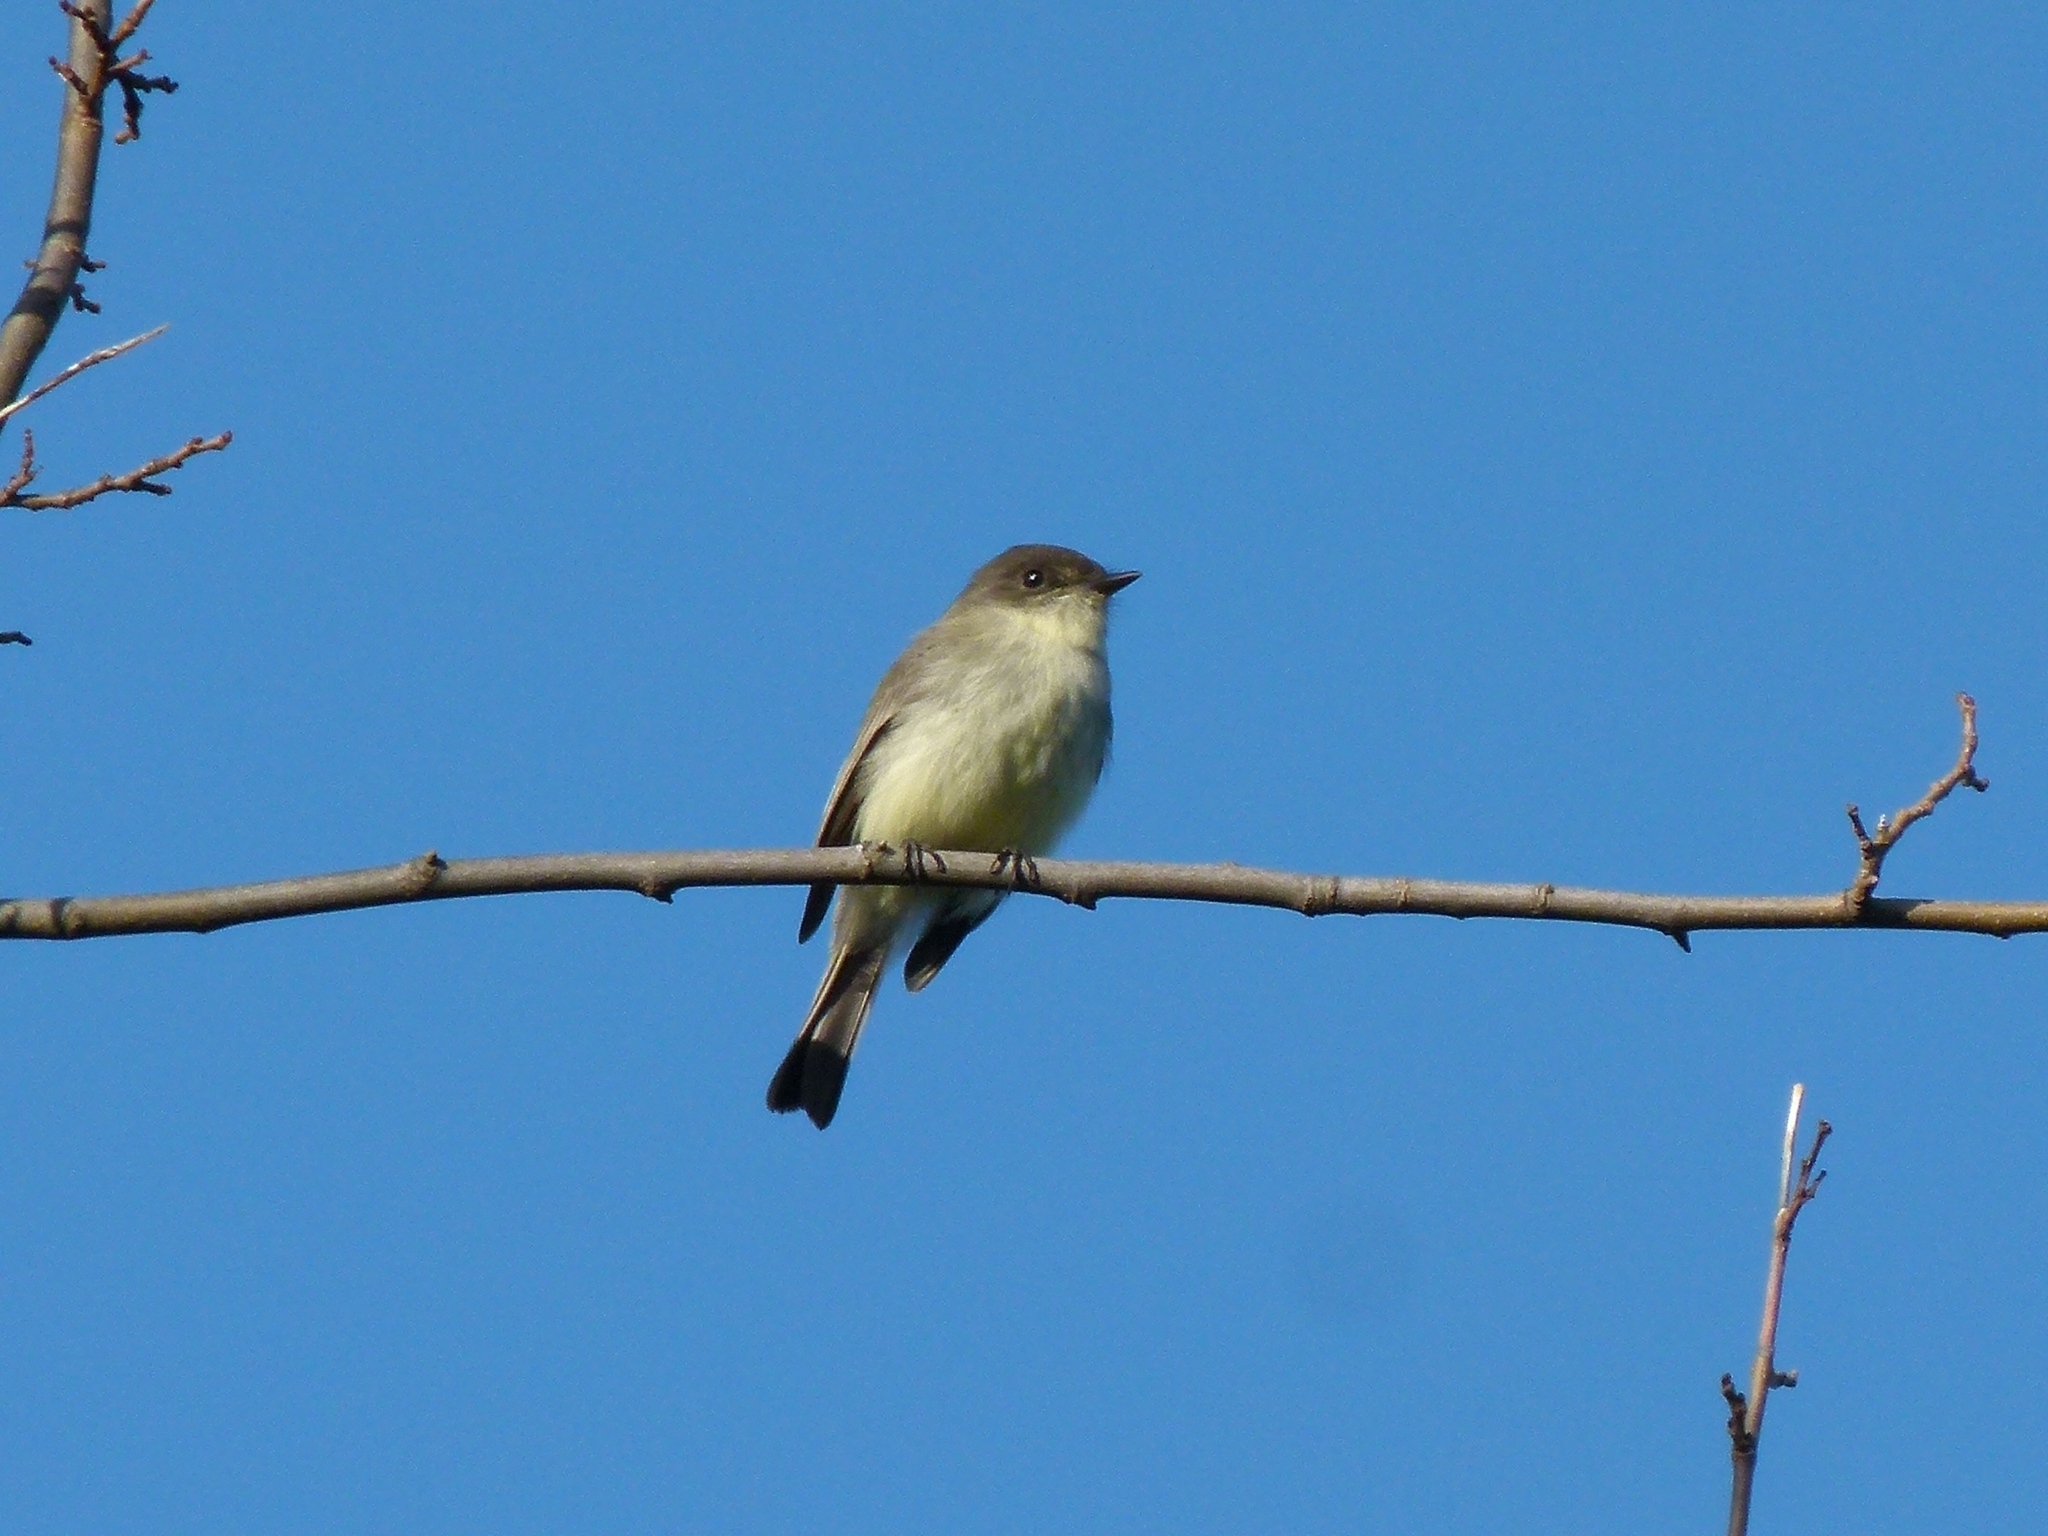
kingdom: Animalia
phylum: Chordata
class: Aves
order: Passeriformes
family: Tyrannidae
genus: Sayornis
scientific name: Sayornis phoebe
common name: Eastern phoebe
